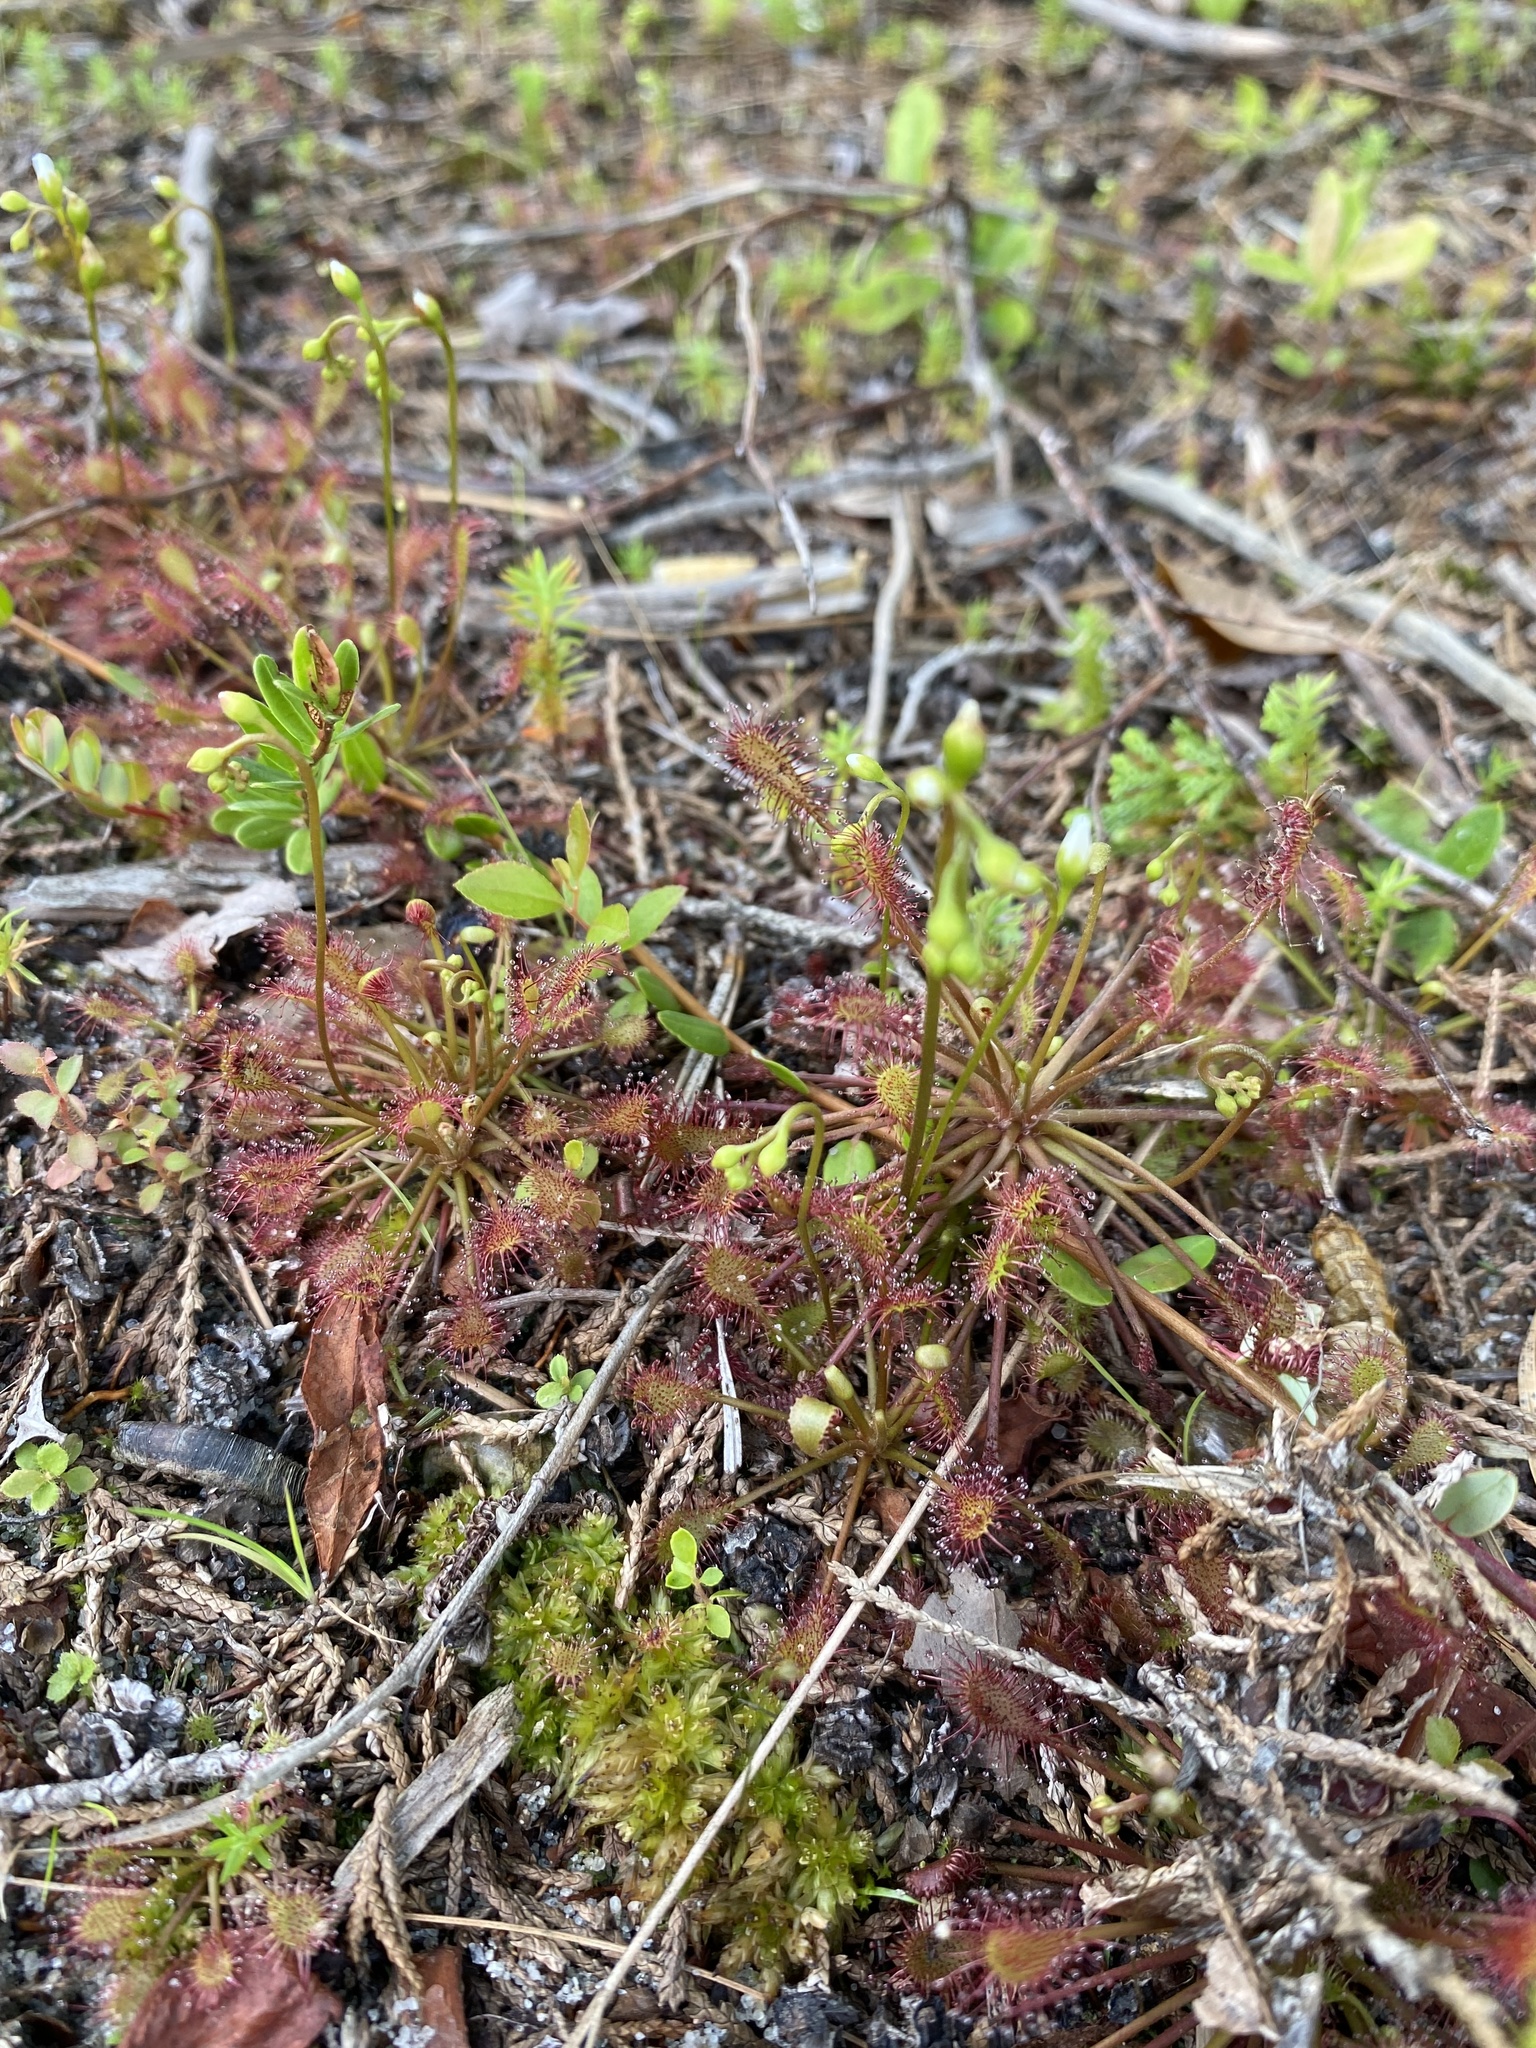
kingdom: Plantae
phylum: Tracheophyta
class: Magnoliopsida
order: Caryophyllales
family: Droseraceae
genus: Drosera
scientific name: Drosera intermedia
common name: Oblong-leaved sundew
